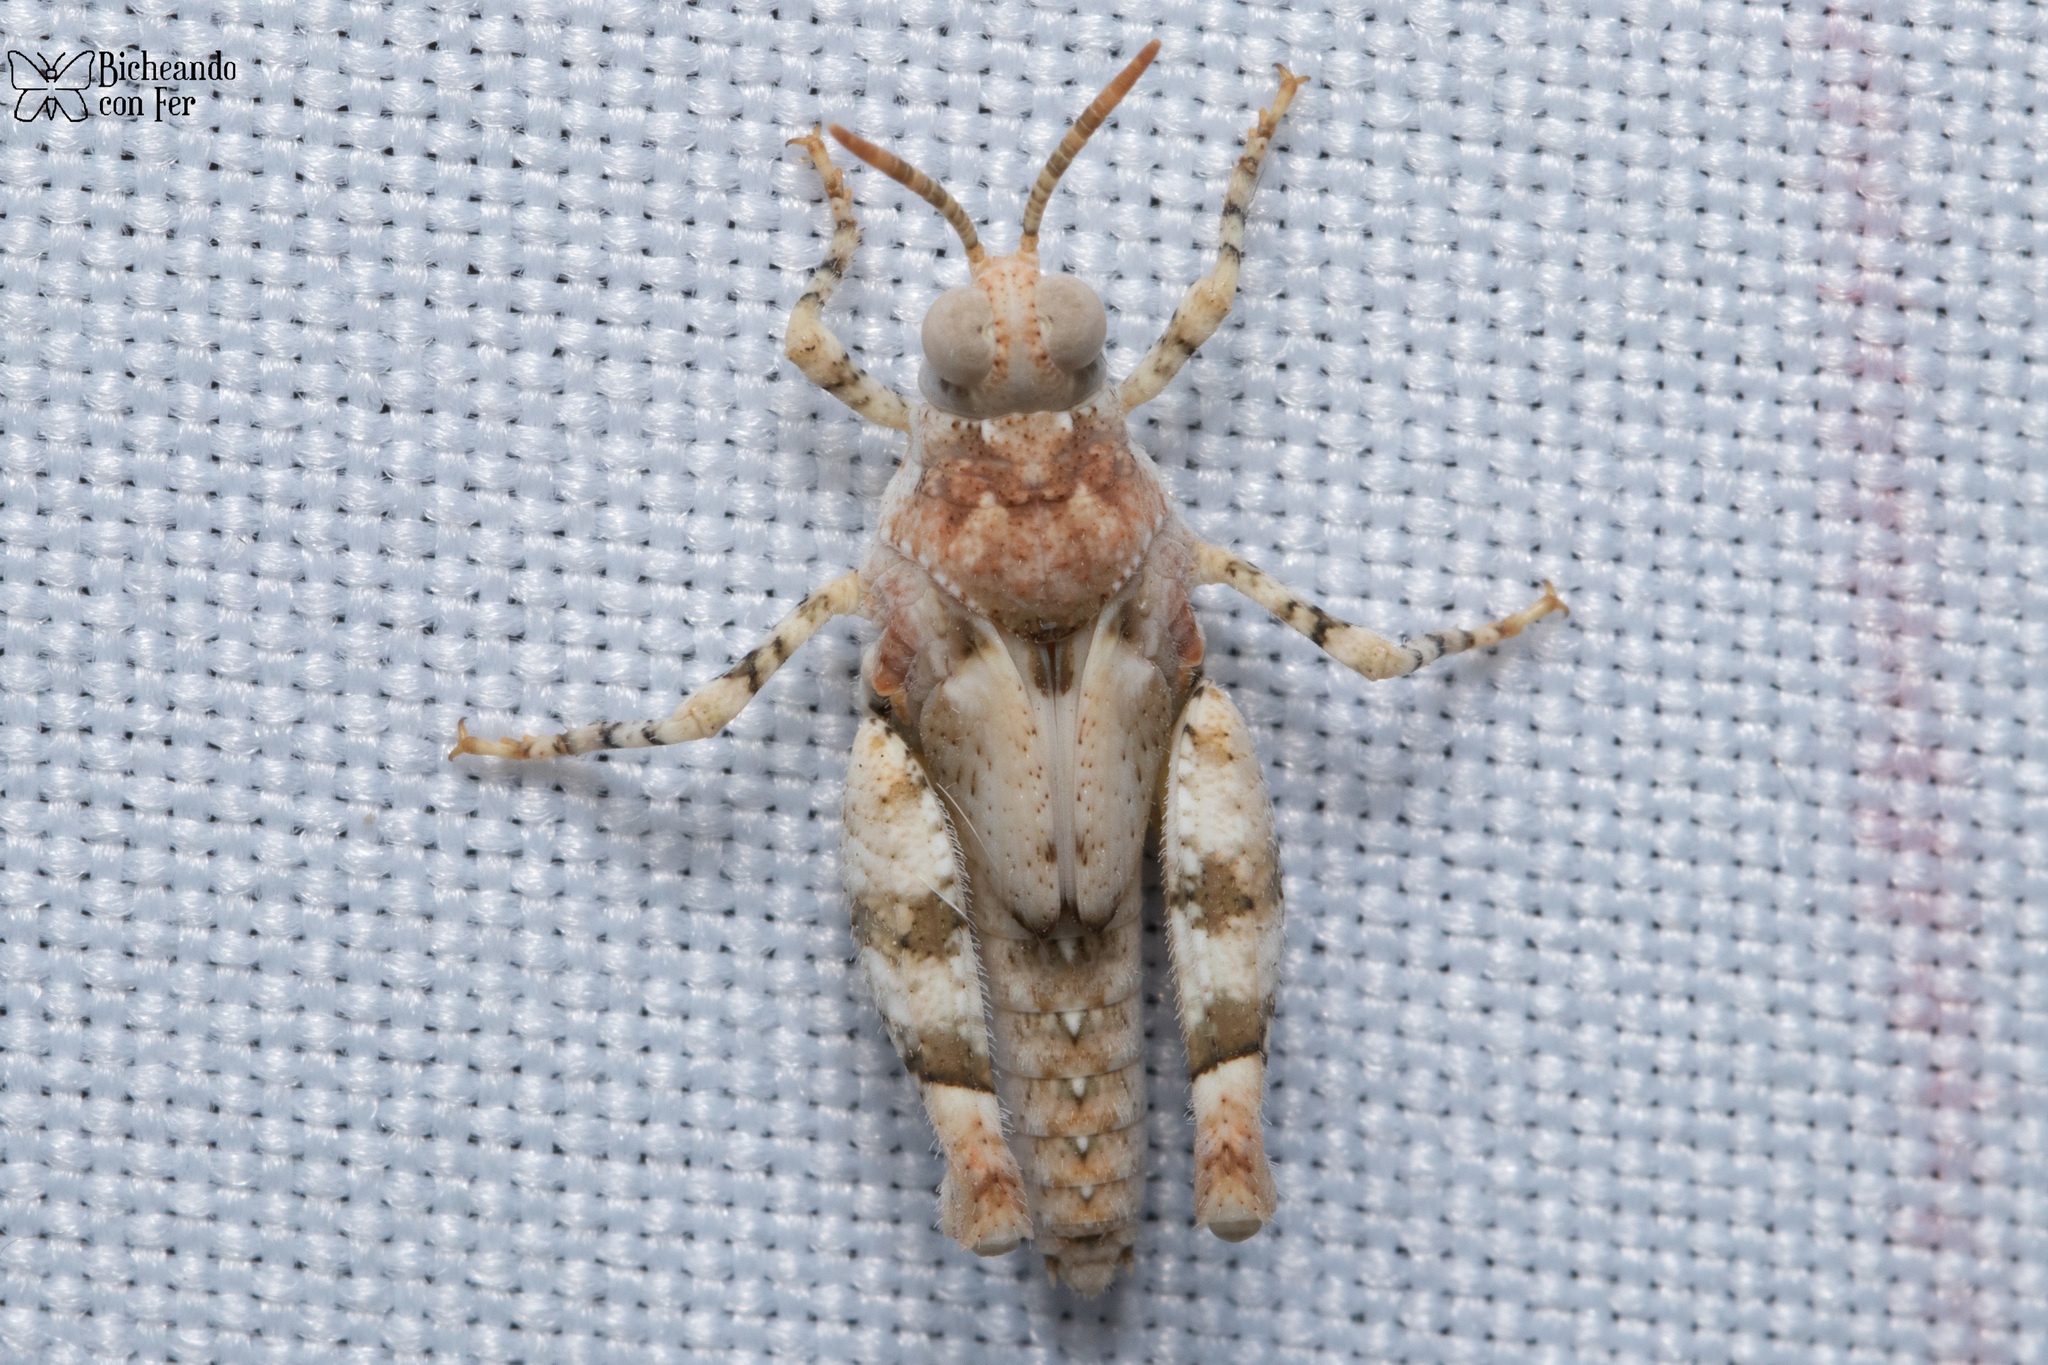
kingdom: Animalia
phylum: Arthropoda
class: Insecta
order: Orthoptera
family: Acrididae
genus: Cibolacris
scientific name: Cibolacris parviceps
